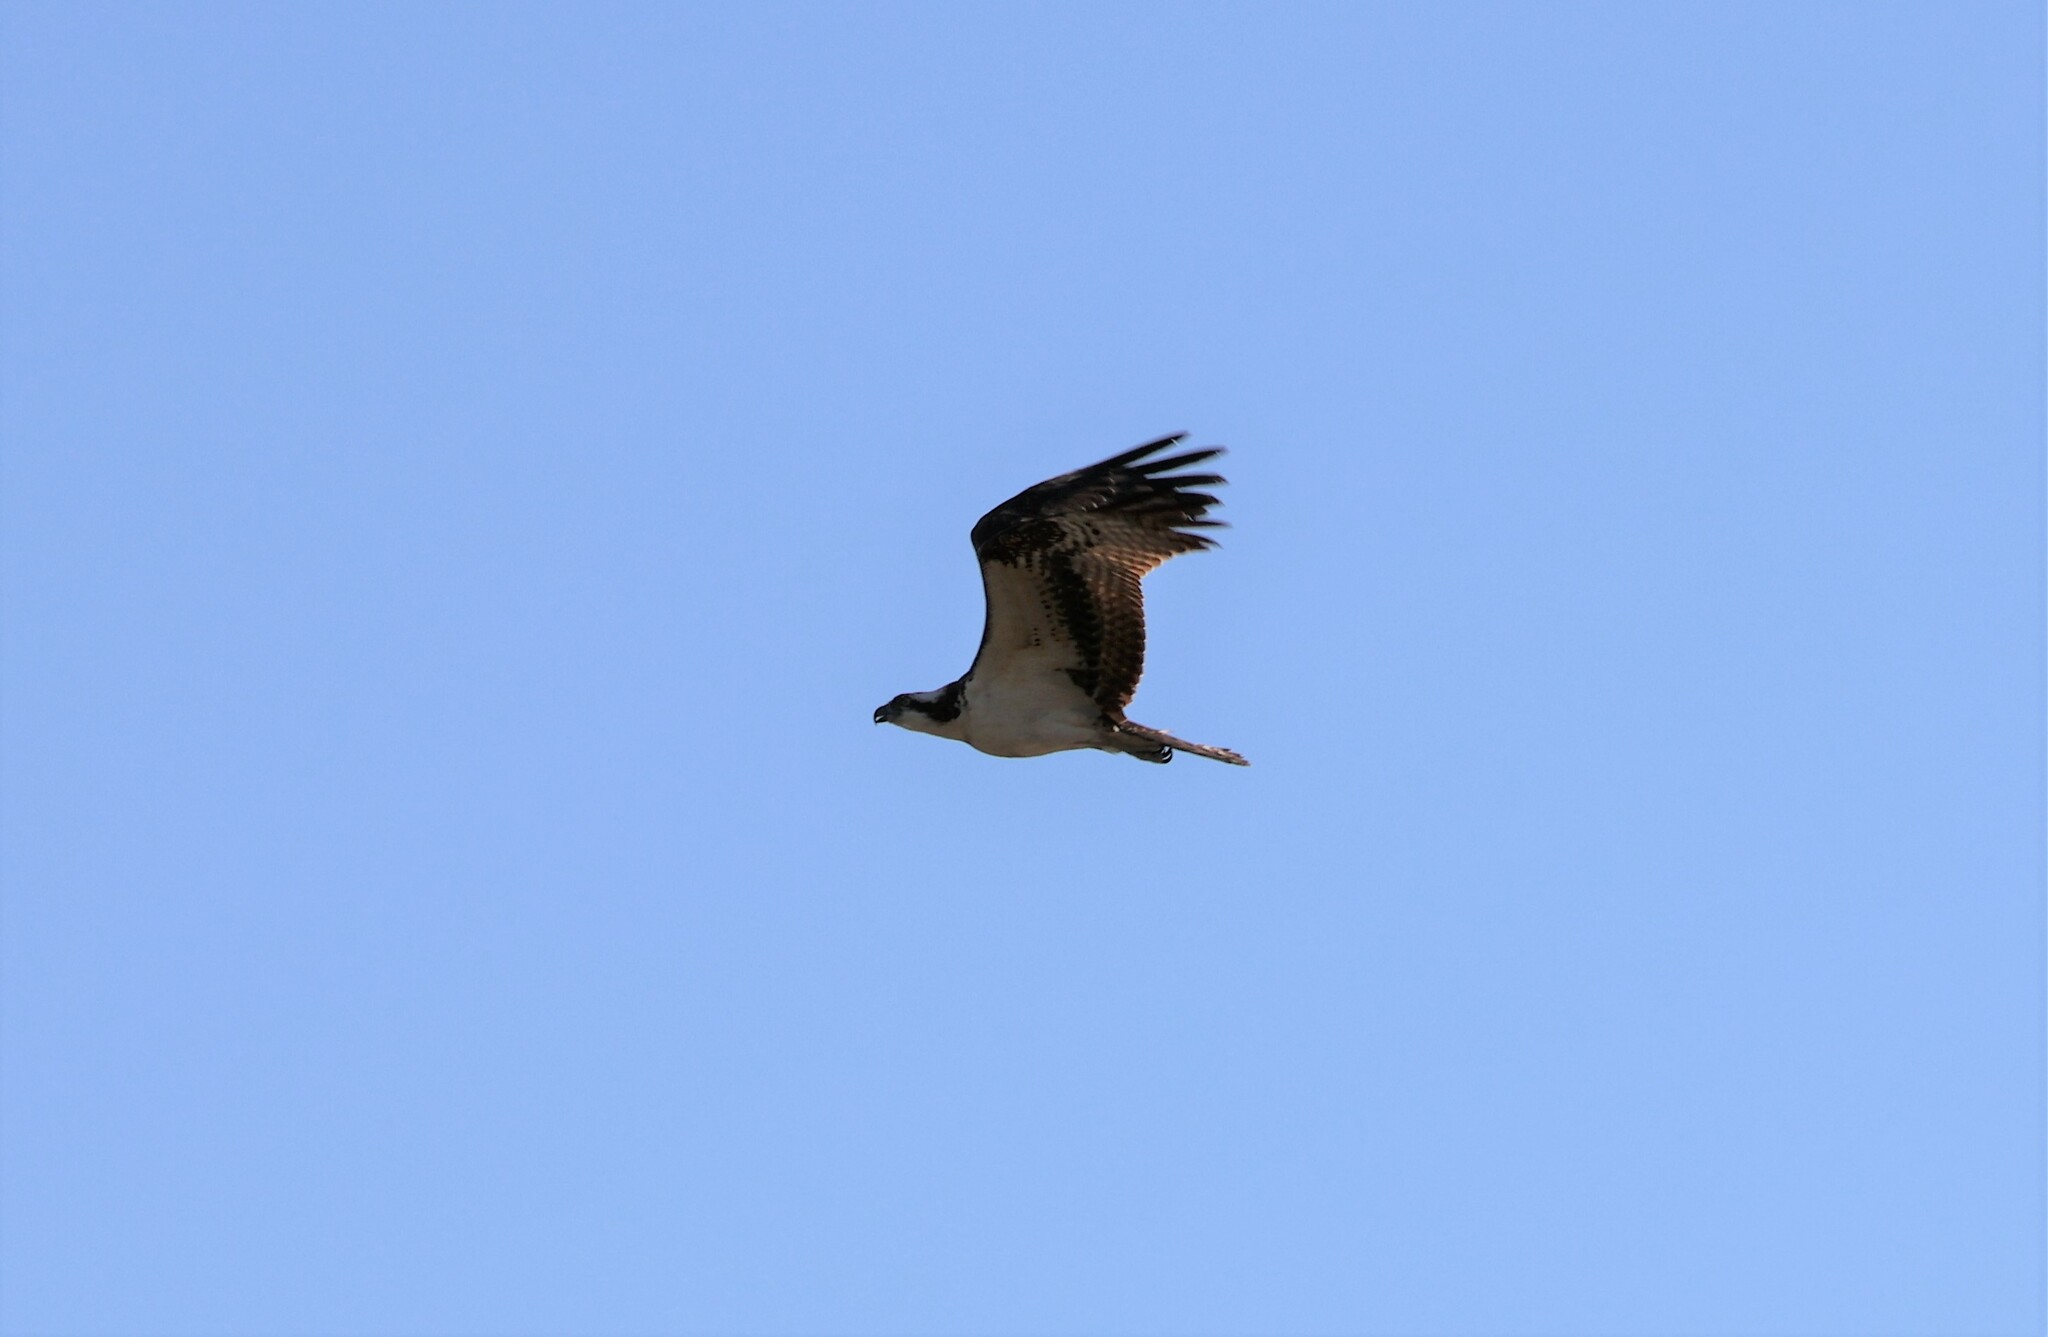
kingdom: Animalia
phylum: Chordata
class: Aves
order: Accipitriformes
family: Pandionidae
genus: Pandion
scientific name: Pandion haliaetus
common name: Osprey
